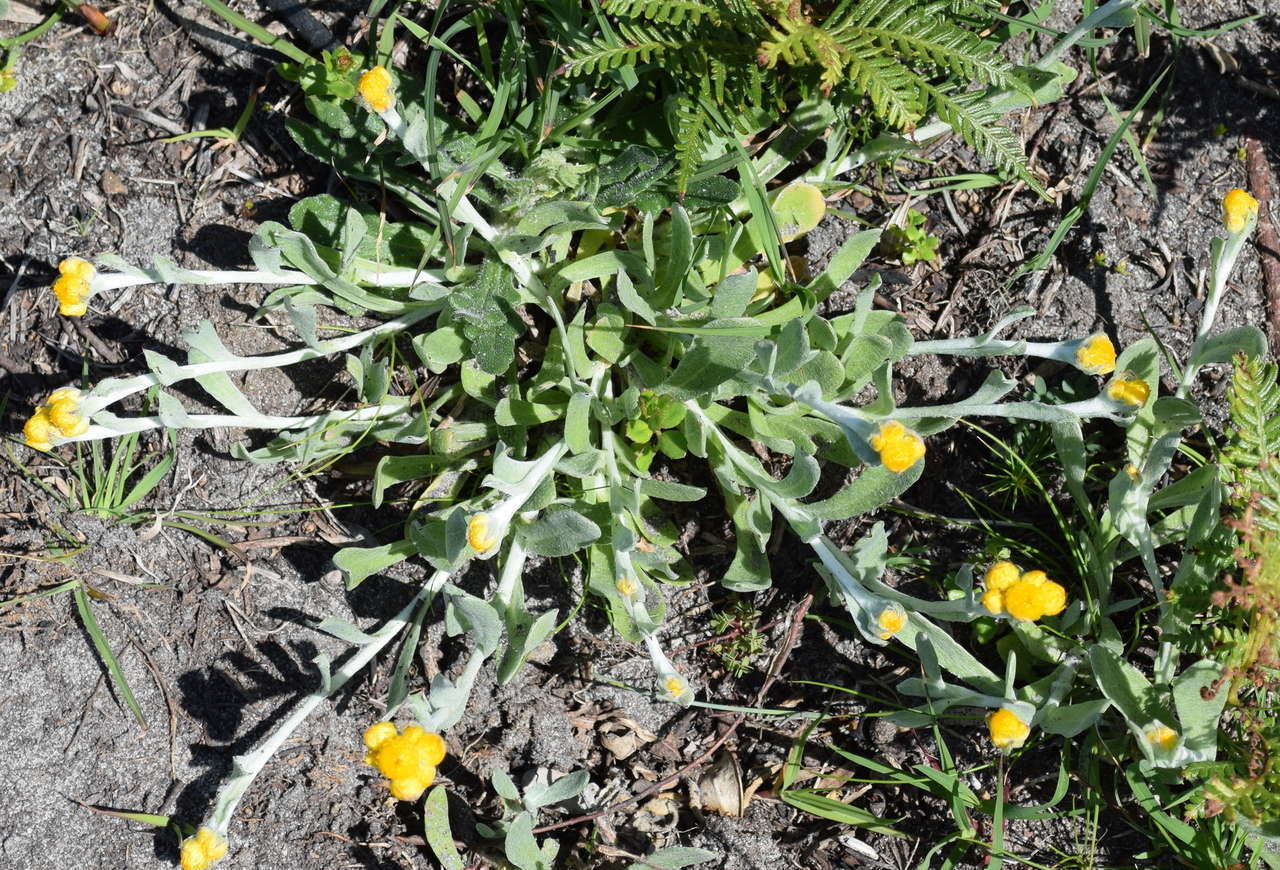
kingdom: Plantae
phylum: Tracheophyta
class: Magnoliopsida
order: Asterales
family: Asteraceae
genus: Chrysocephalum
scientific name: Chrysocephalum apiculatum
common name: Common everlasting
